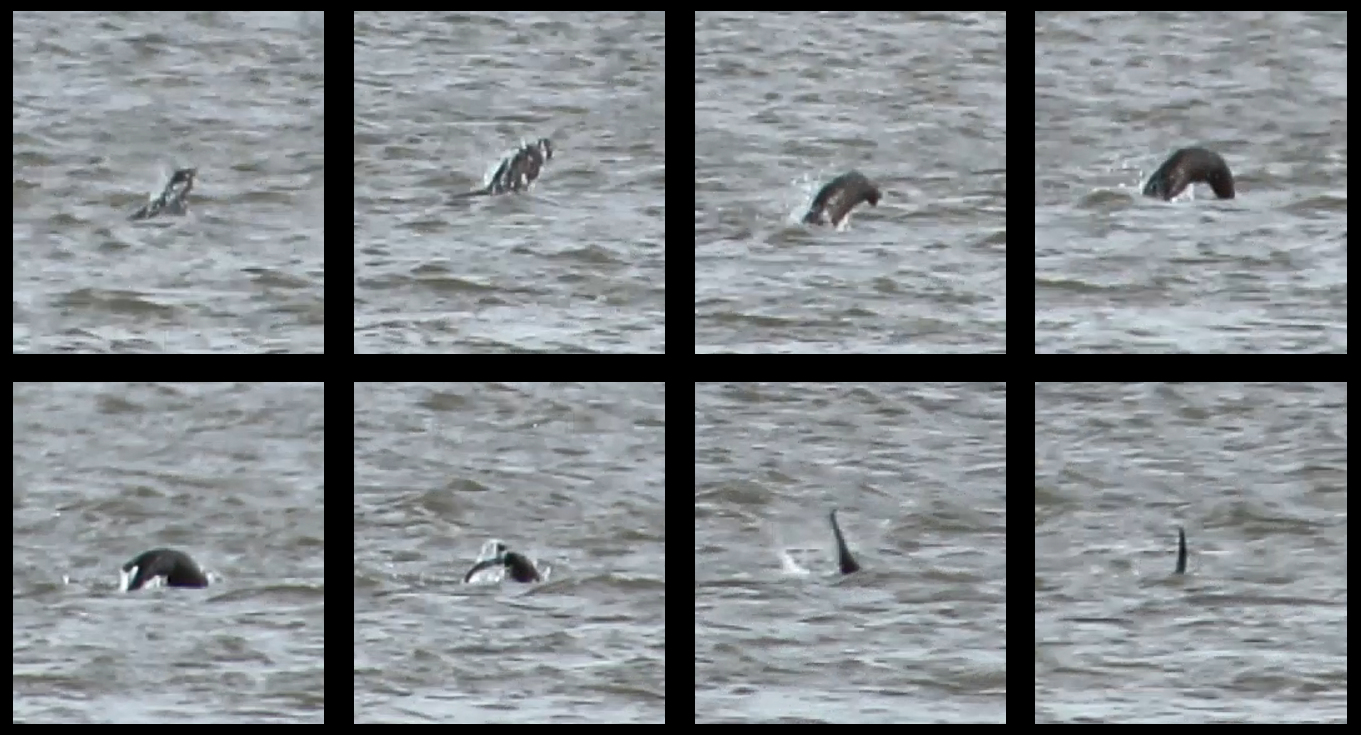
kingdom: Animalia
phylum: Chordata
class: Mammalia
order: Carnivora
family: Mustelidae
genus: Lontra
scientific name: Lontra longicaudis
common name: Neotropical otter
